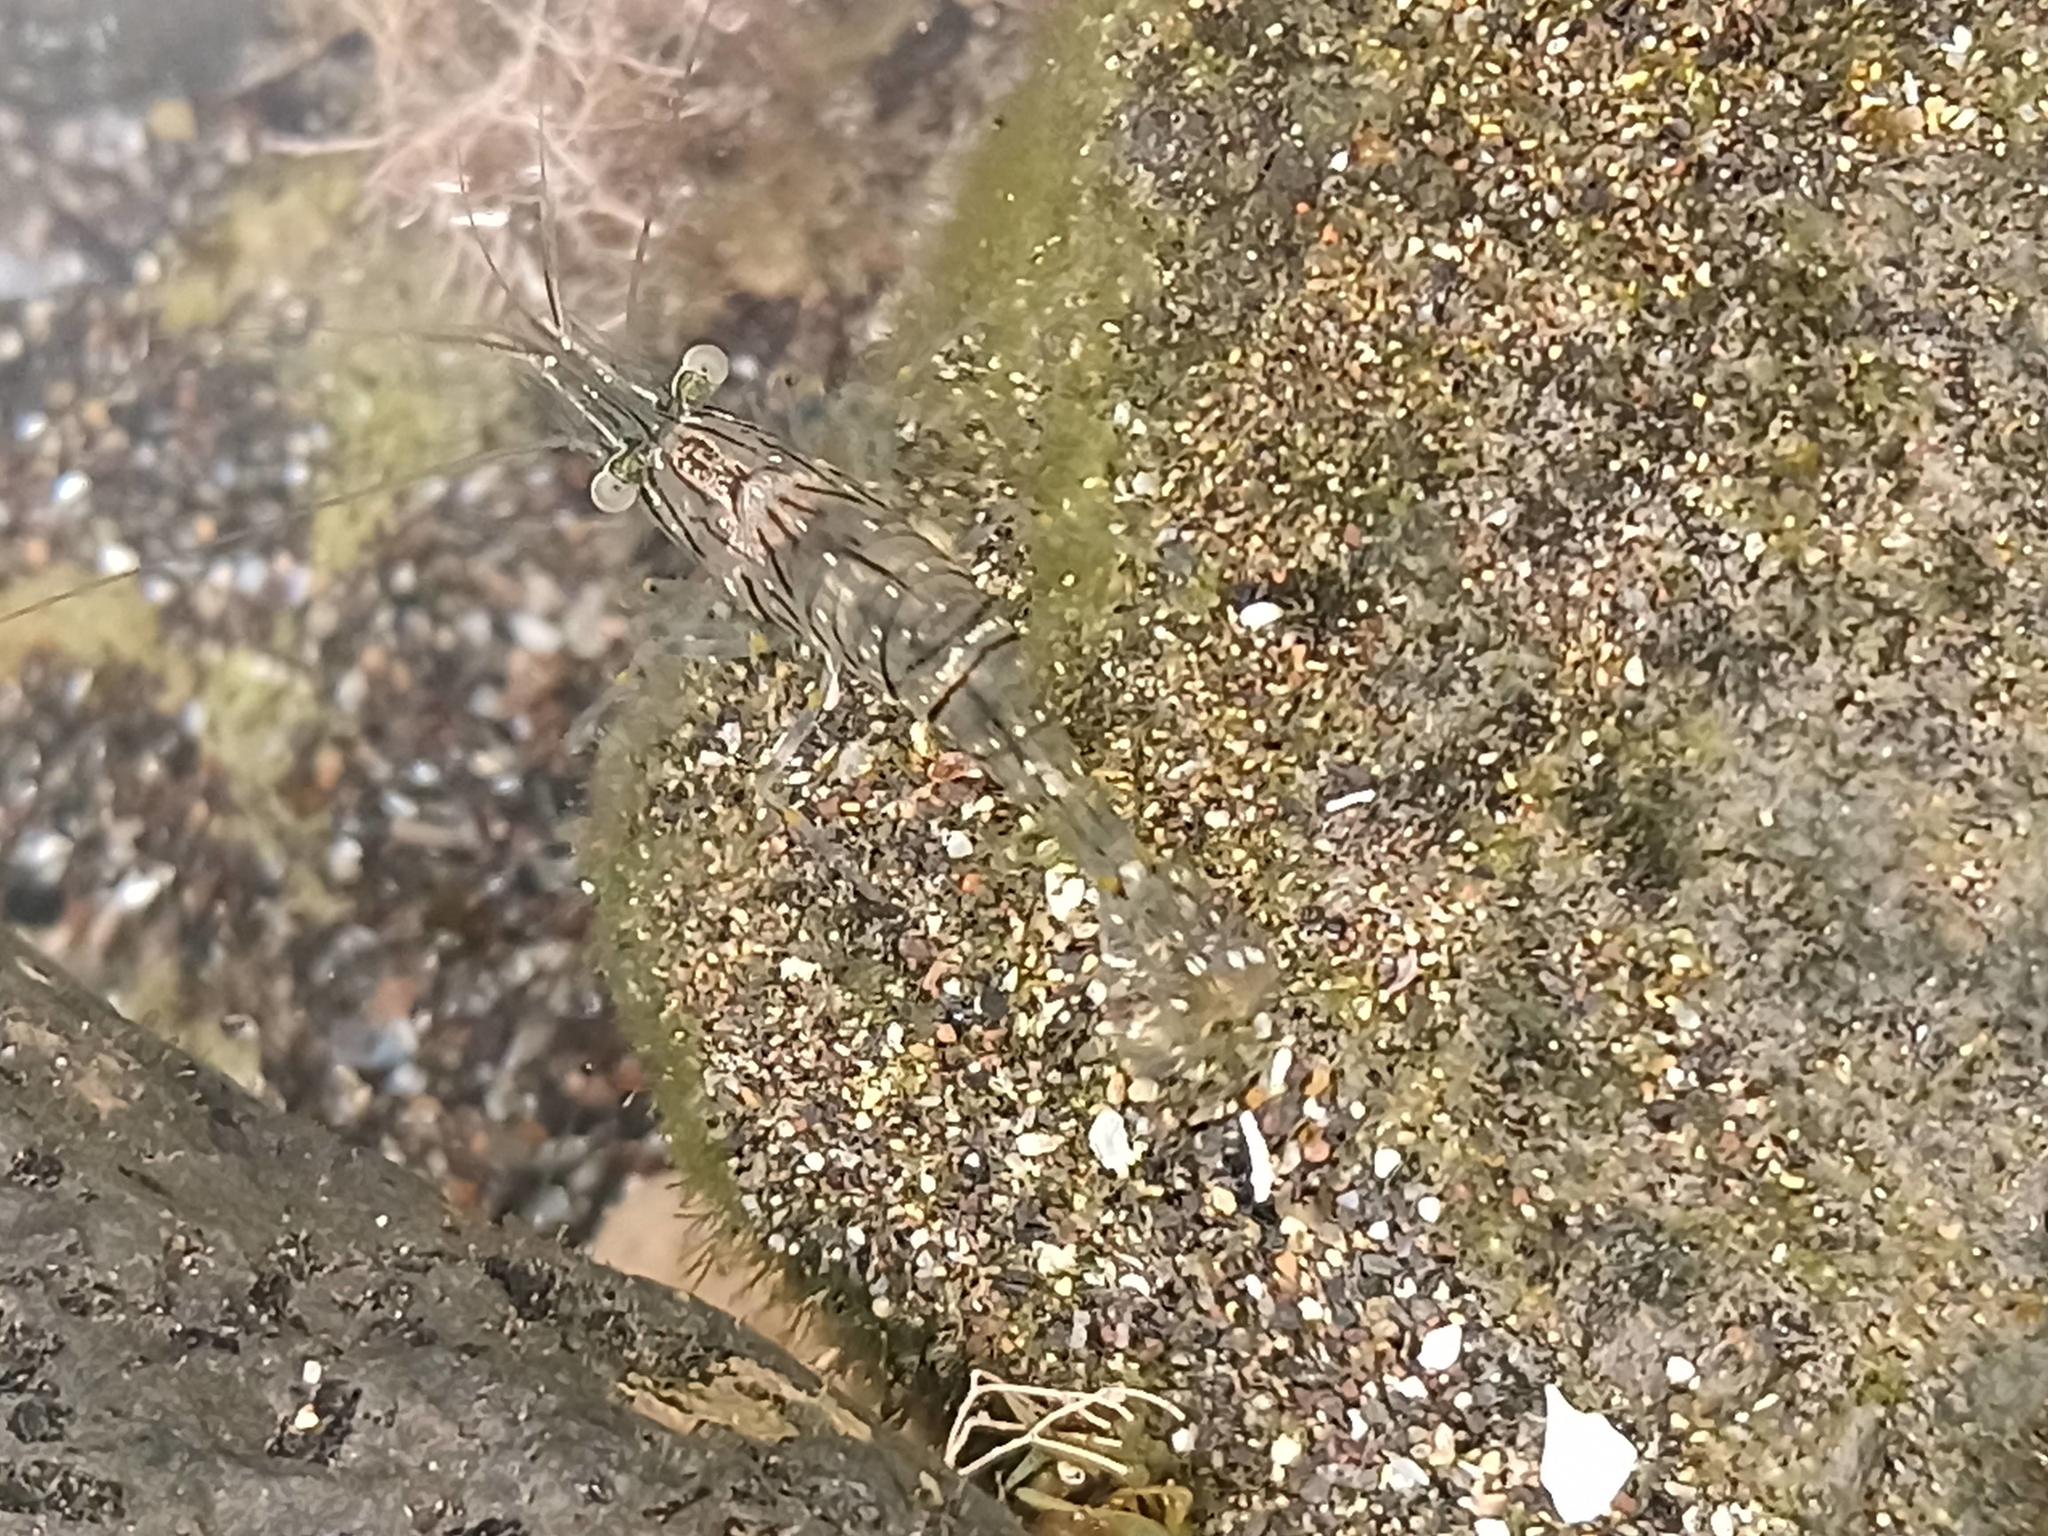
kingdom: Animalia
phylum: Arthropoda
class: Malacostraca
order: Decapoda
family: Palaemonidae
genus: Palaemon
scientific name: Palaemon elegans
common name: Grass prawm
